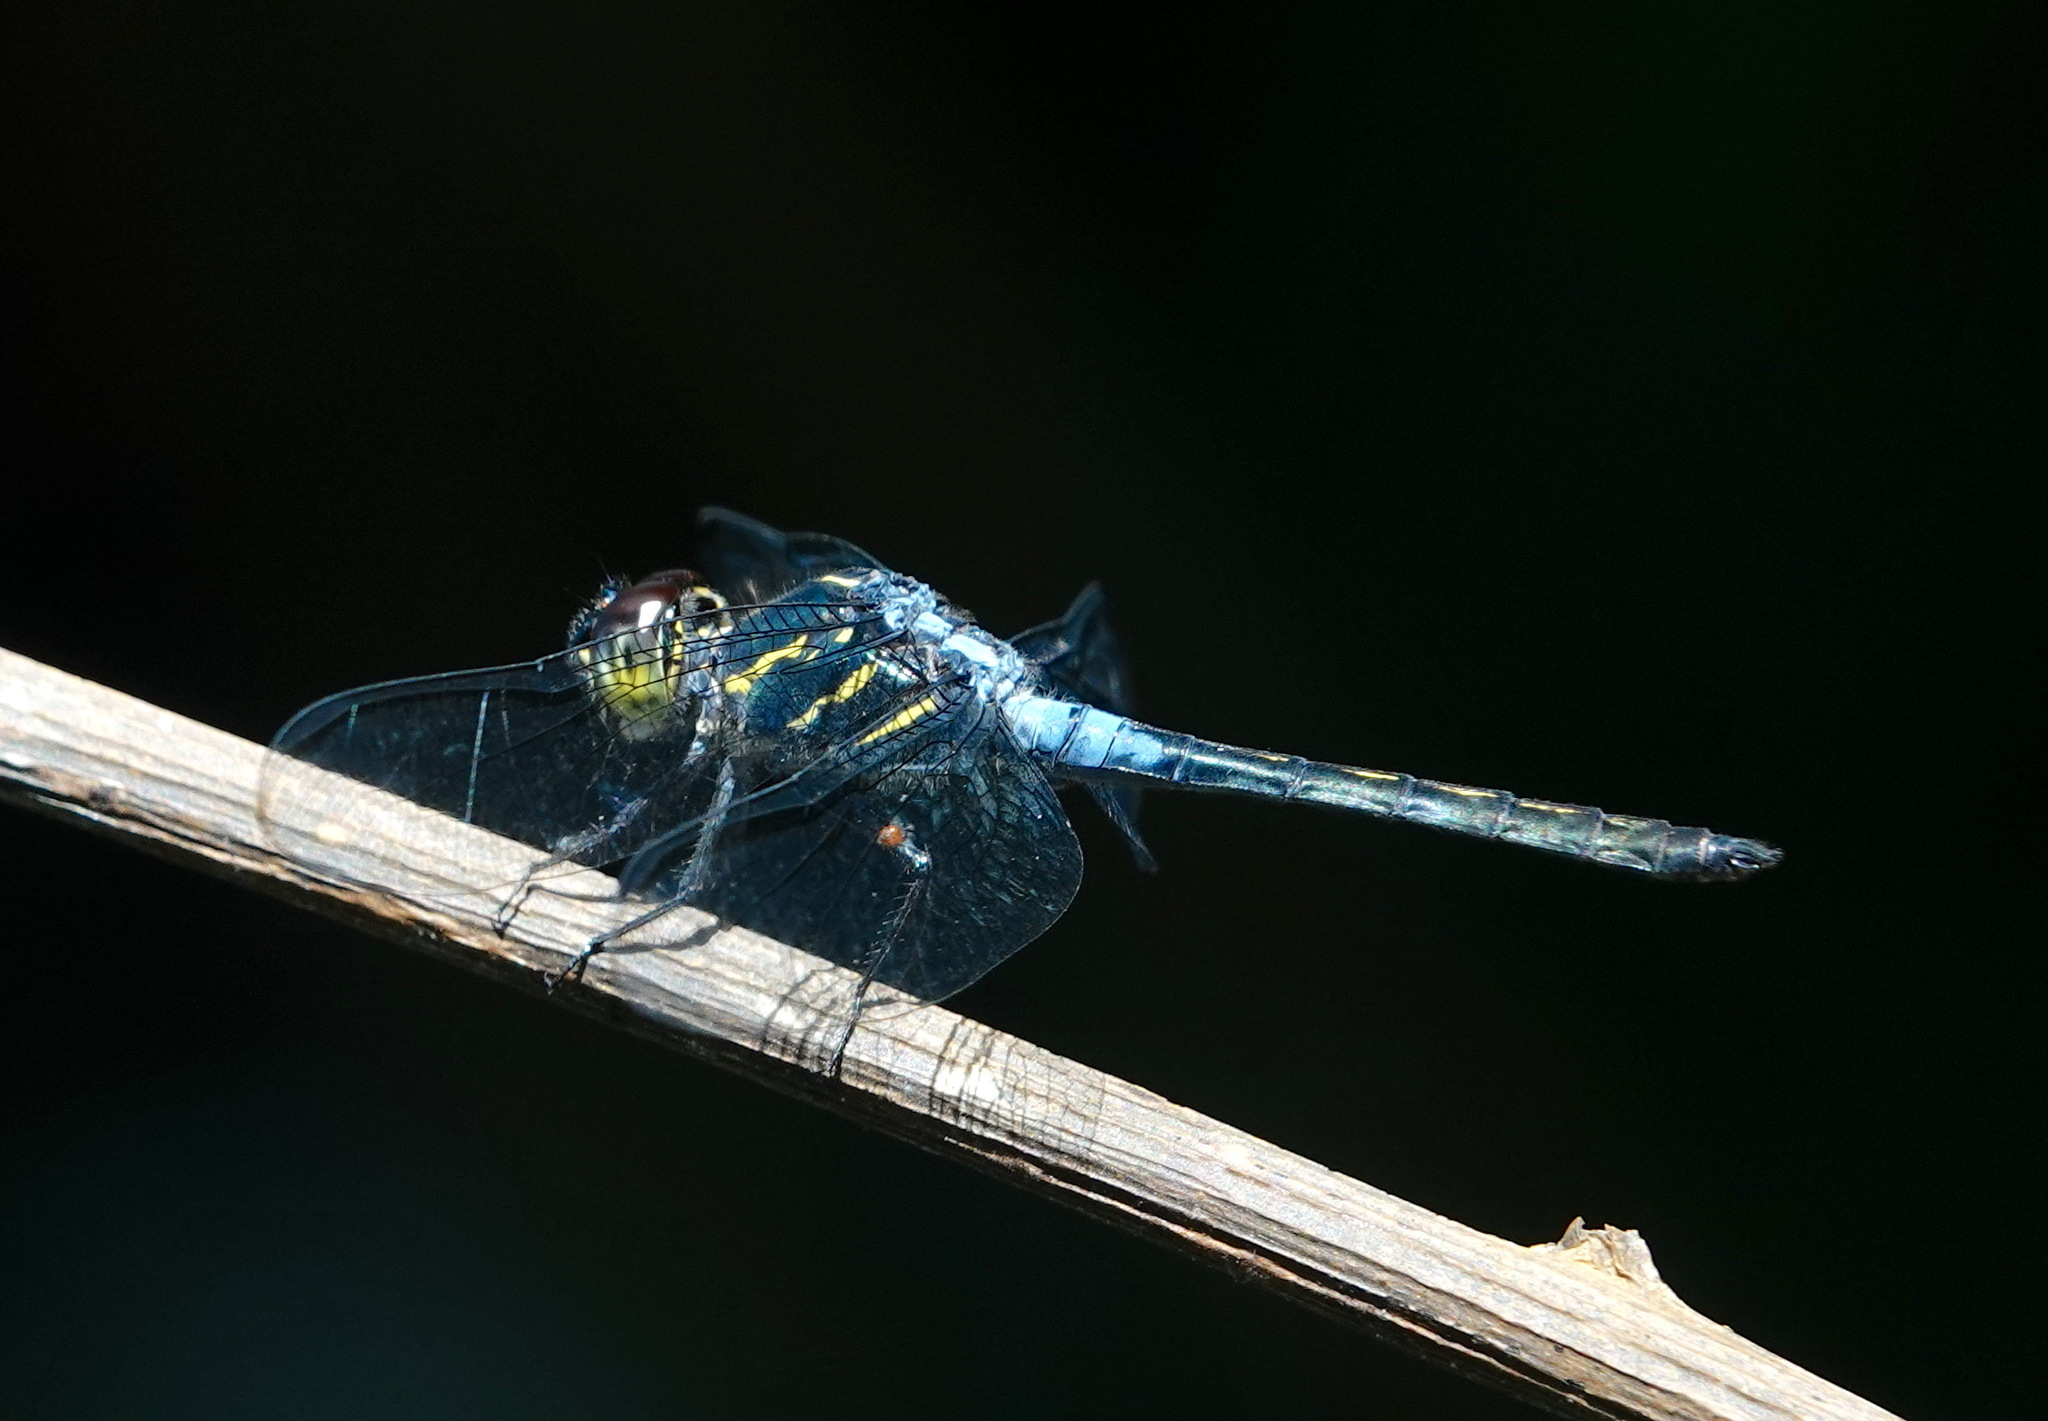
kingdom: Animalia
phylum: Arthropoda
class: Insecta
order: Odonata
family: Libellulidae
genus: Cratilla
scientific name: Cratilla lineata
